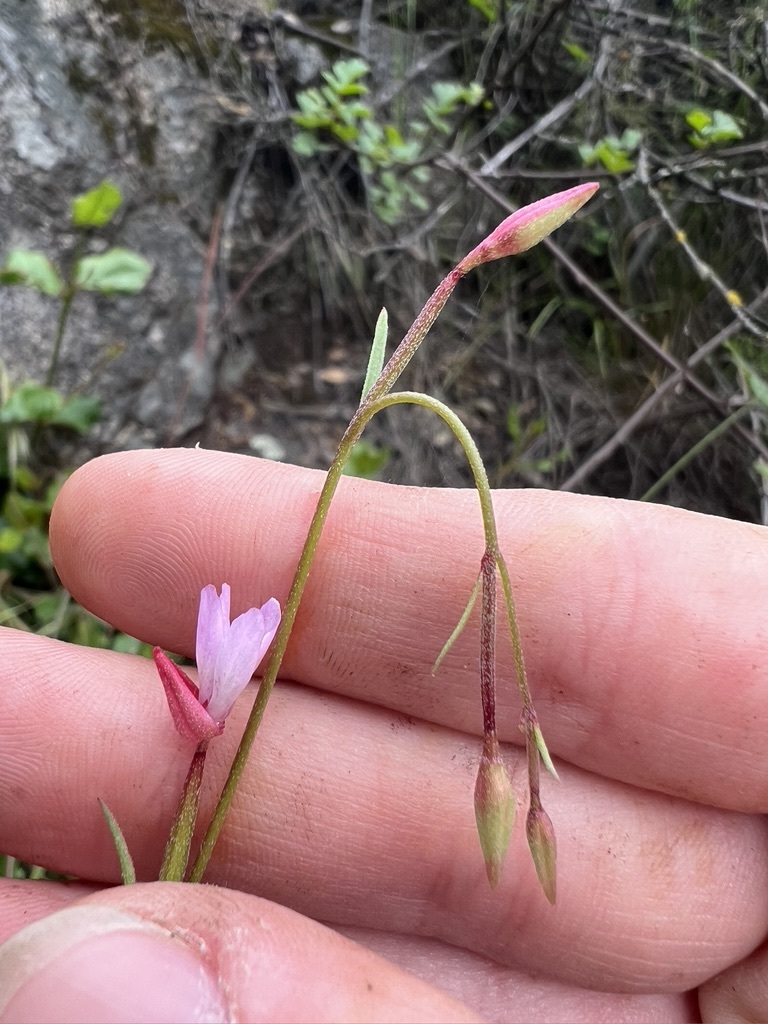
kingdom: Plantae
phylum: Tracheophyta
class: Magnoliopsida
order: Myrtales
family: Onagraceae
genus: Clarkia
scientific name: Clarkia similis
